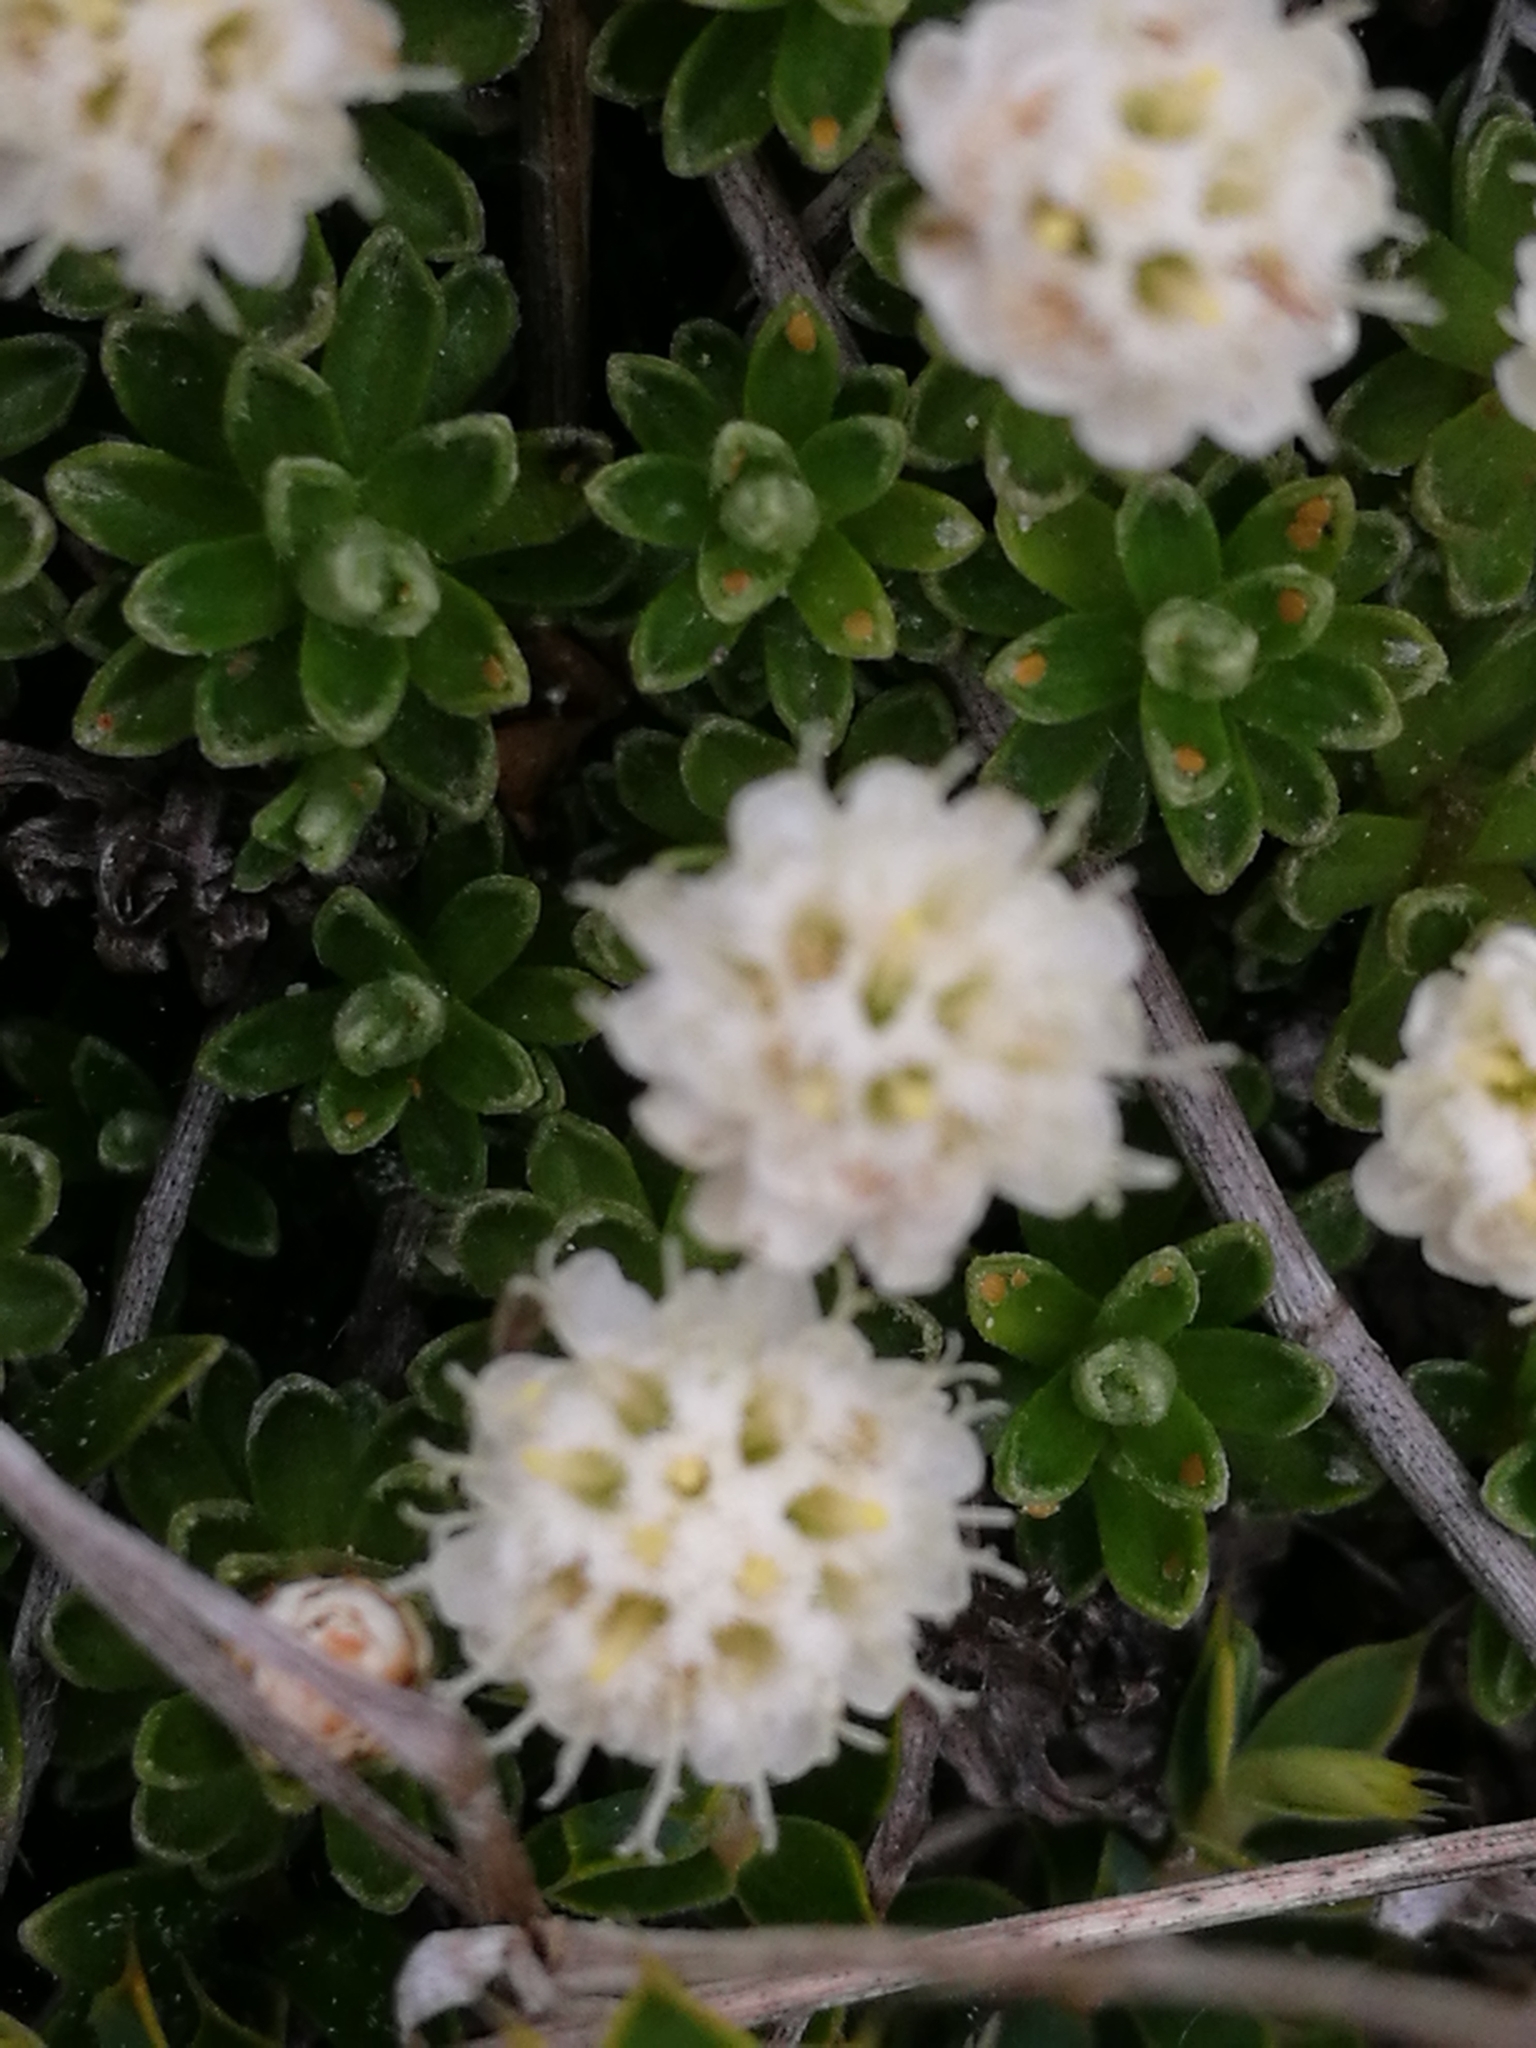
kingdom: Plantae
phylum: Tracheophyta
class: Magnoliopsida
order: Asterales
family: Asteraceae
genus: Raoulia
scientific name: Raoulia subsericea
